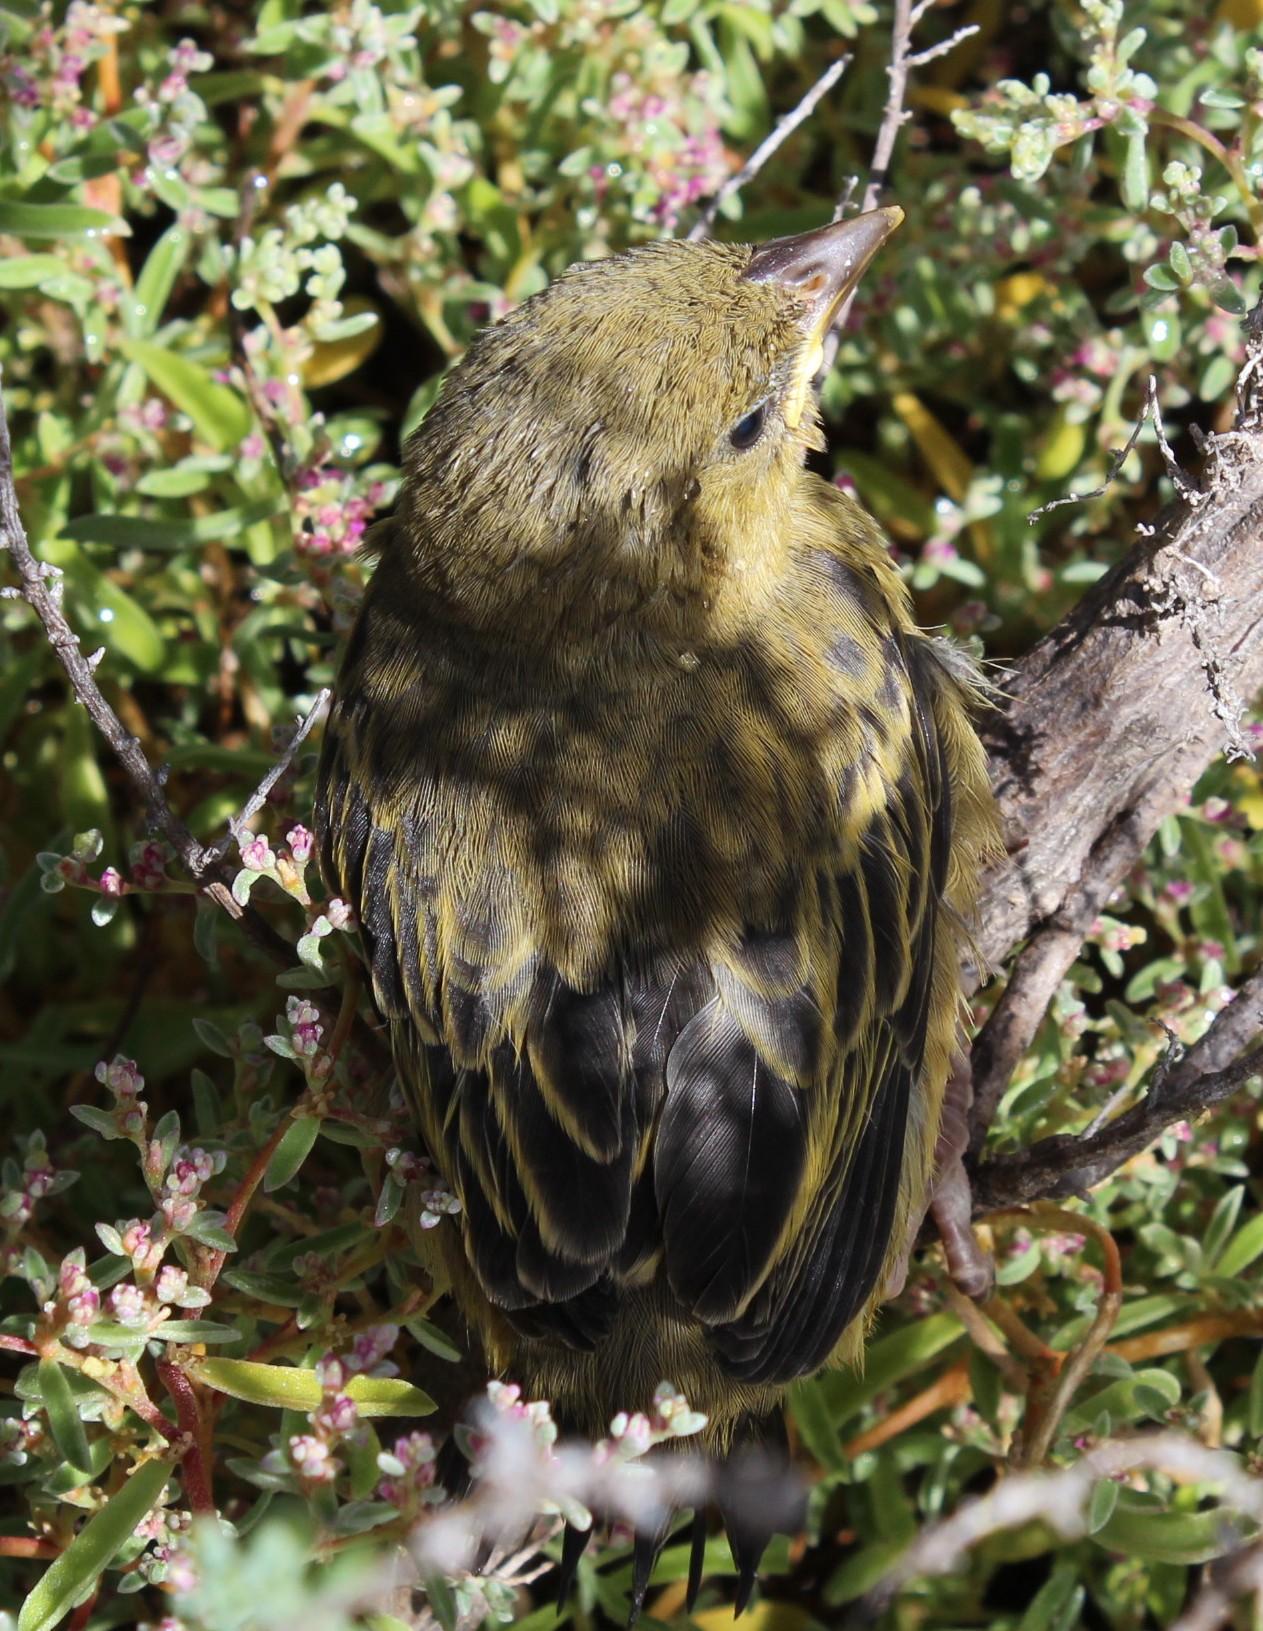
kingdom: Animalia
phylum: Chordata
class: Aves
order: Passeriformes
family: Ploceidae
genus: Ploceus
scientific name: Ploceus capensis
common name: Cape weaver
